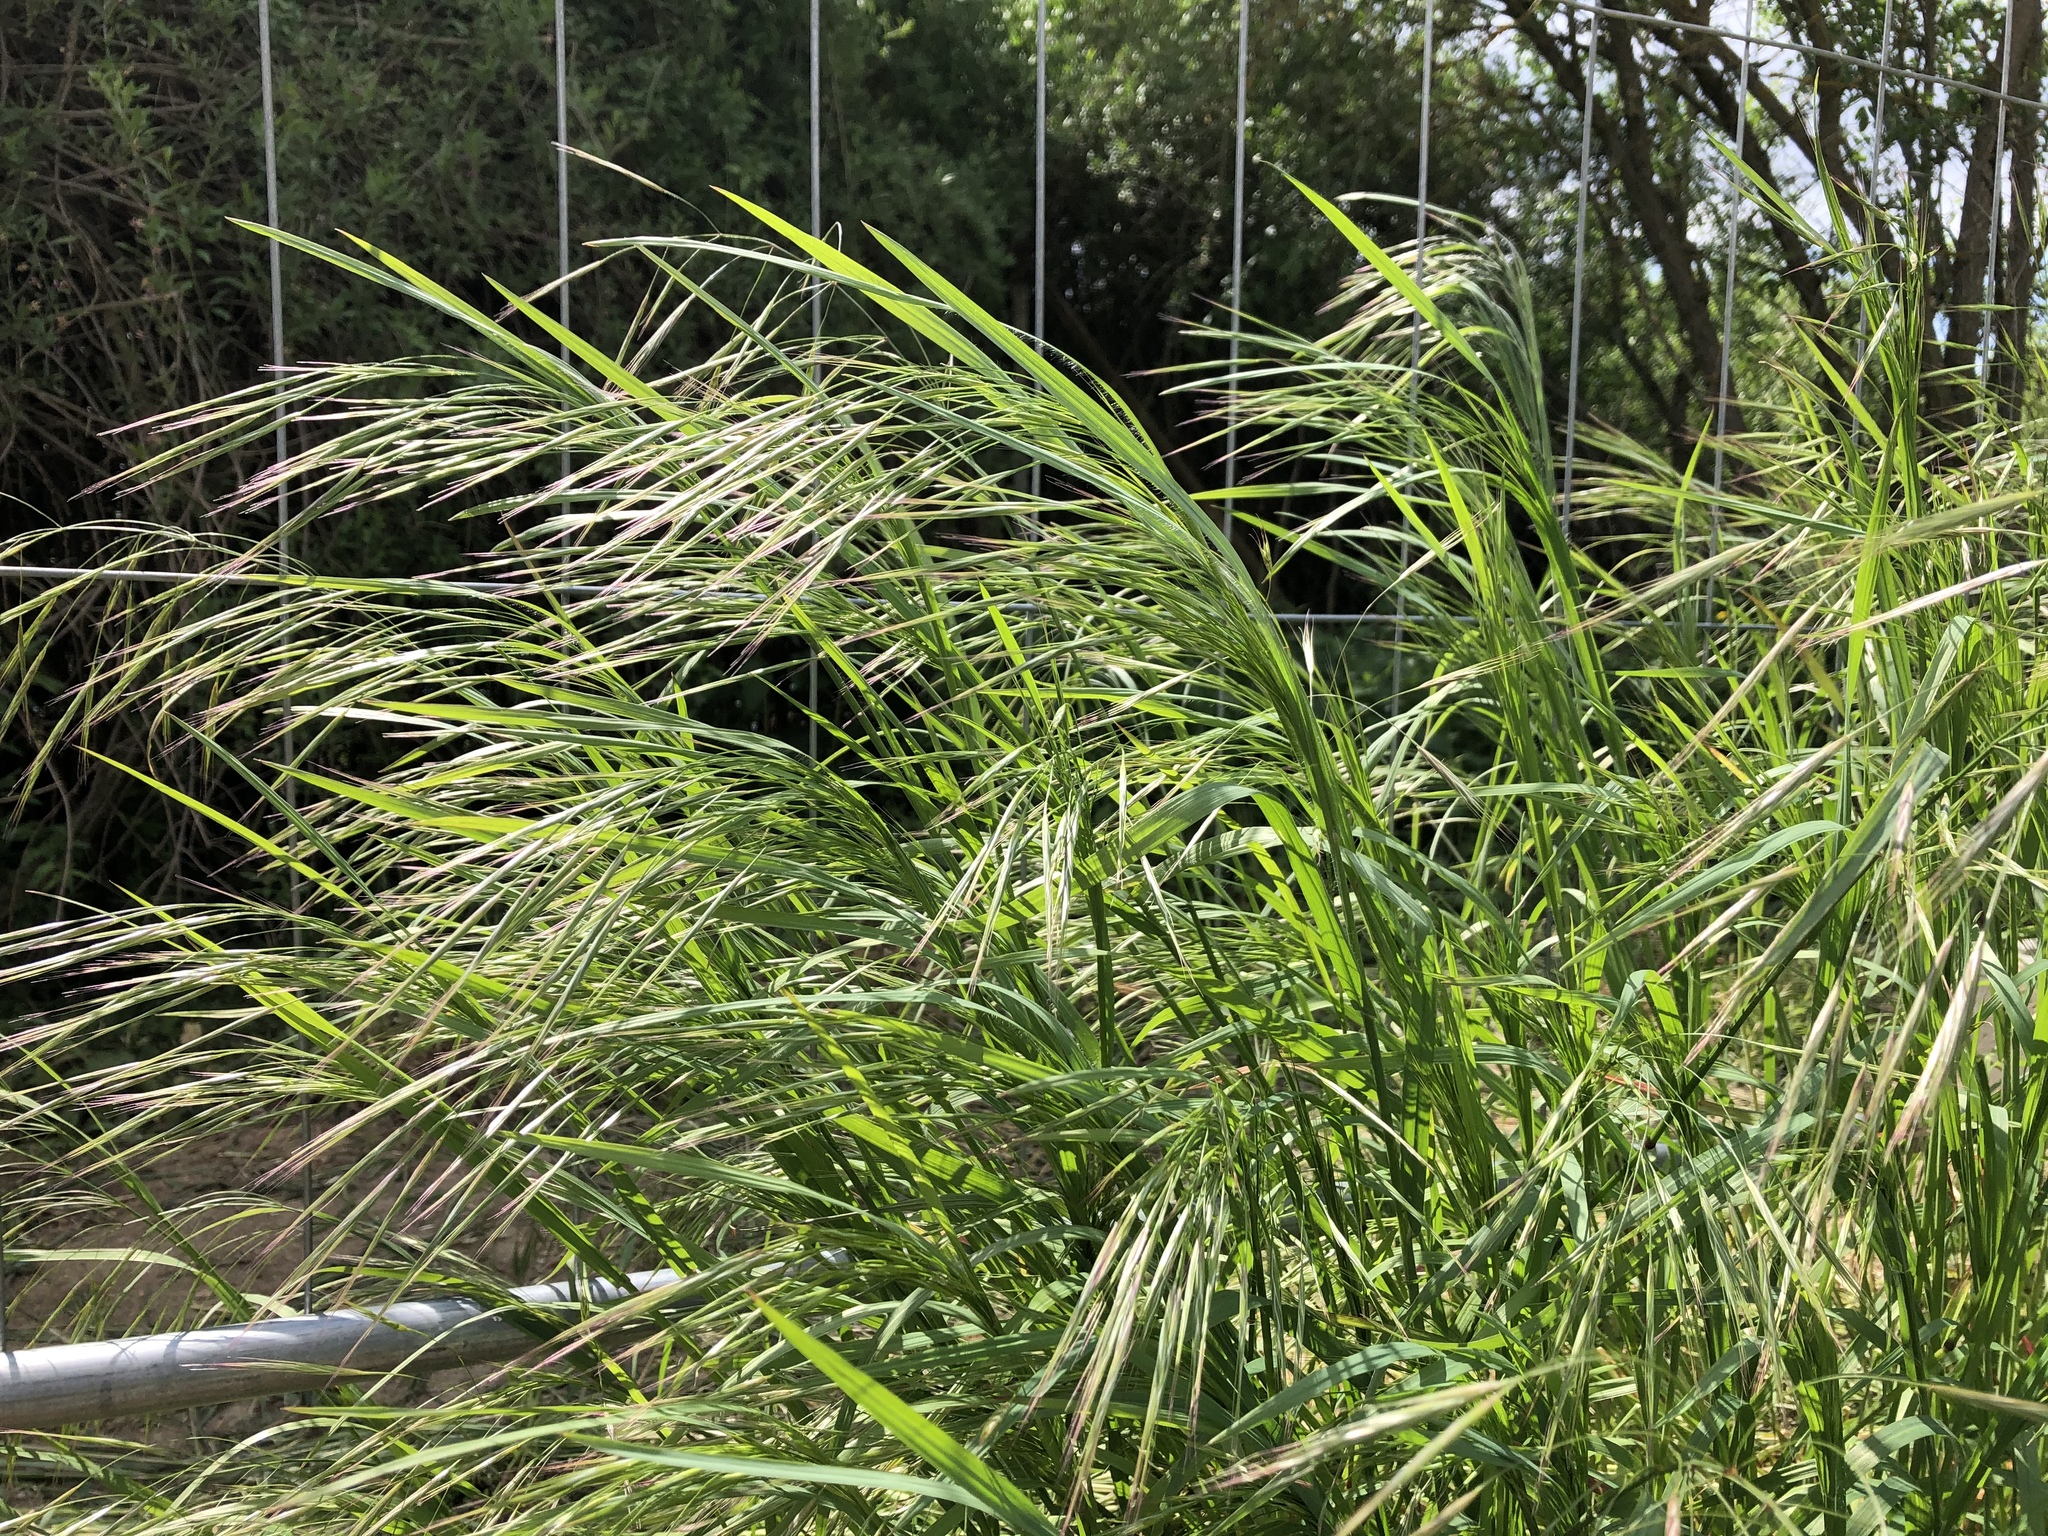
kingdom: Plantae
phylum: Tracheophyta
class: Liliopsida
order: Poales
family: Poaceae
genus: Bromus
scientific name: Bromus sterilis
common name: Poverty brome
